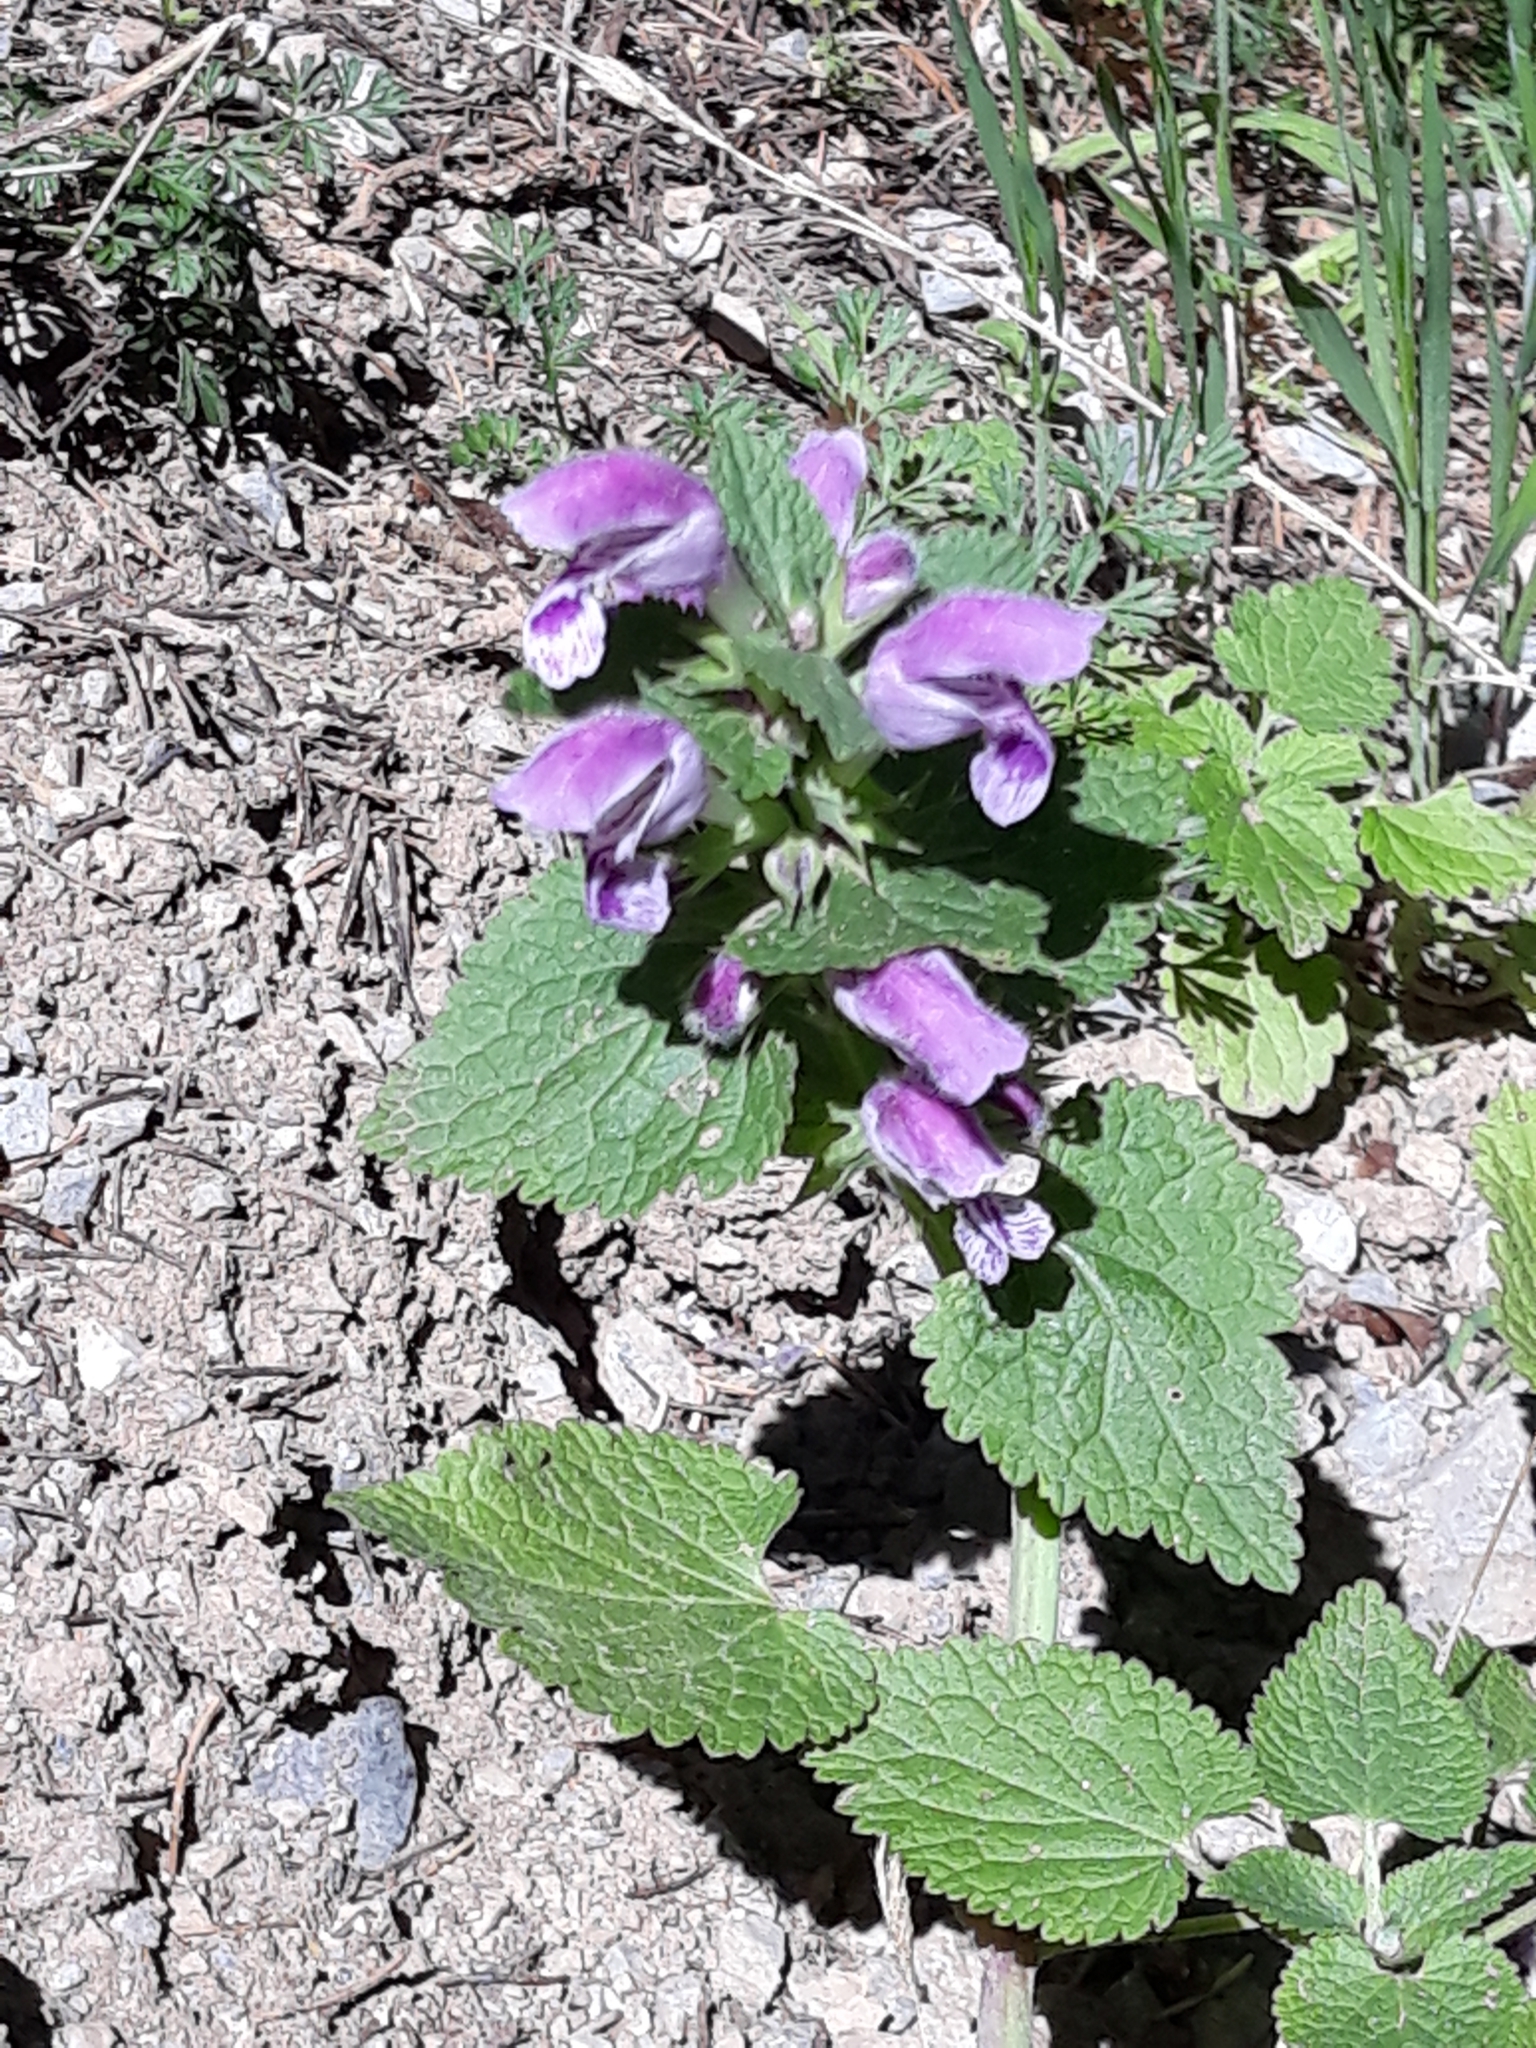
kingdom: Plantae
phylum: Tracheophyta
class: Magnoliopsida
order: Lamiales
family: Lamiaceae
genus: Lamium
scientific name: Lamium garganicum
